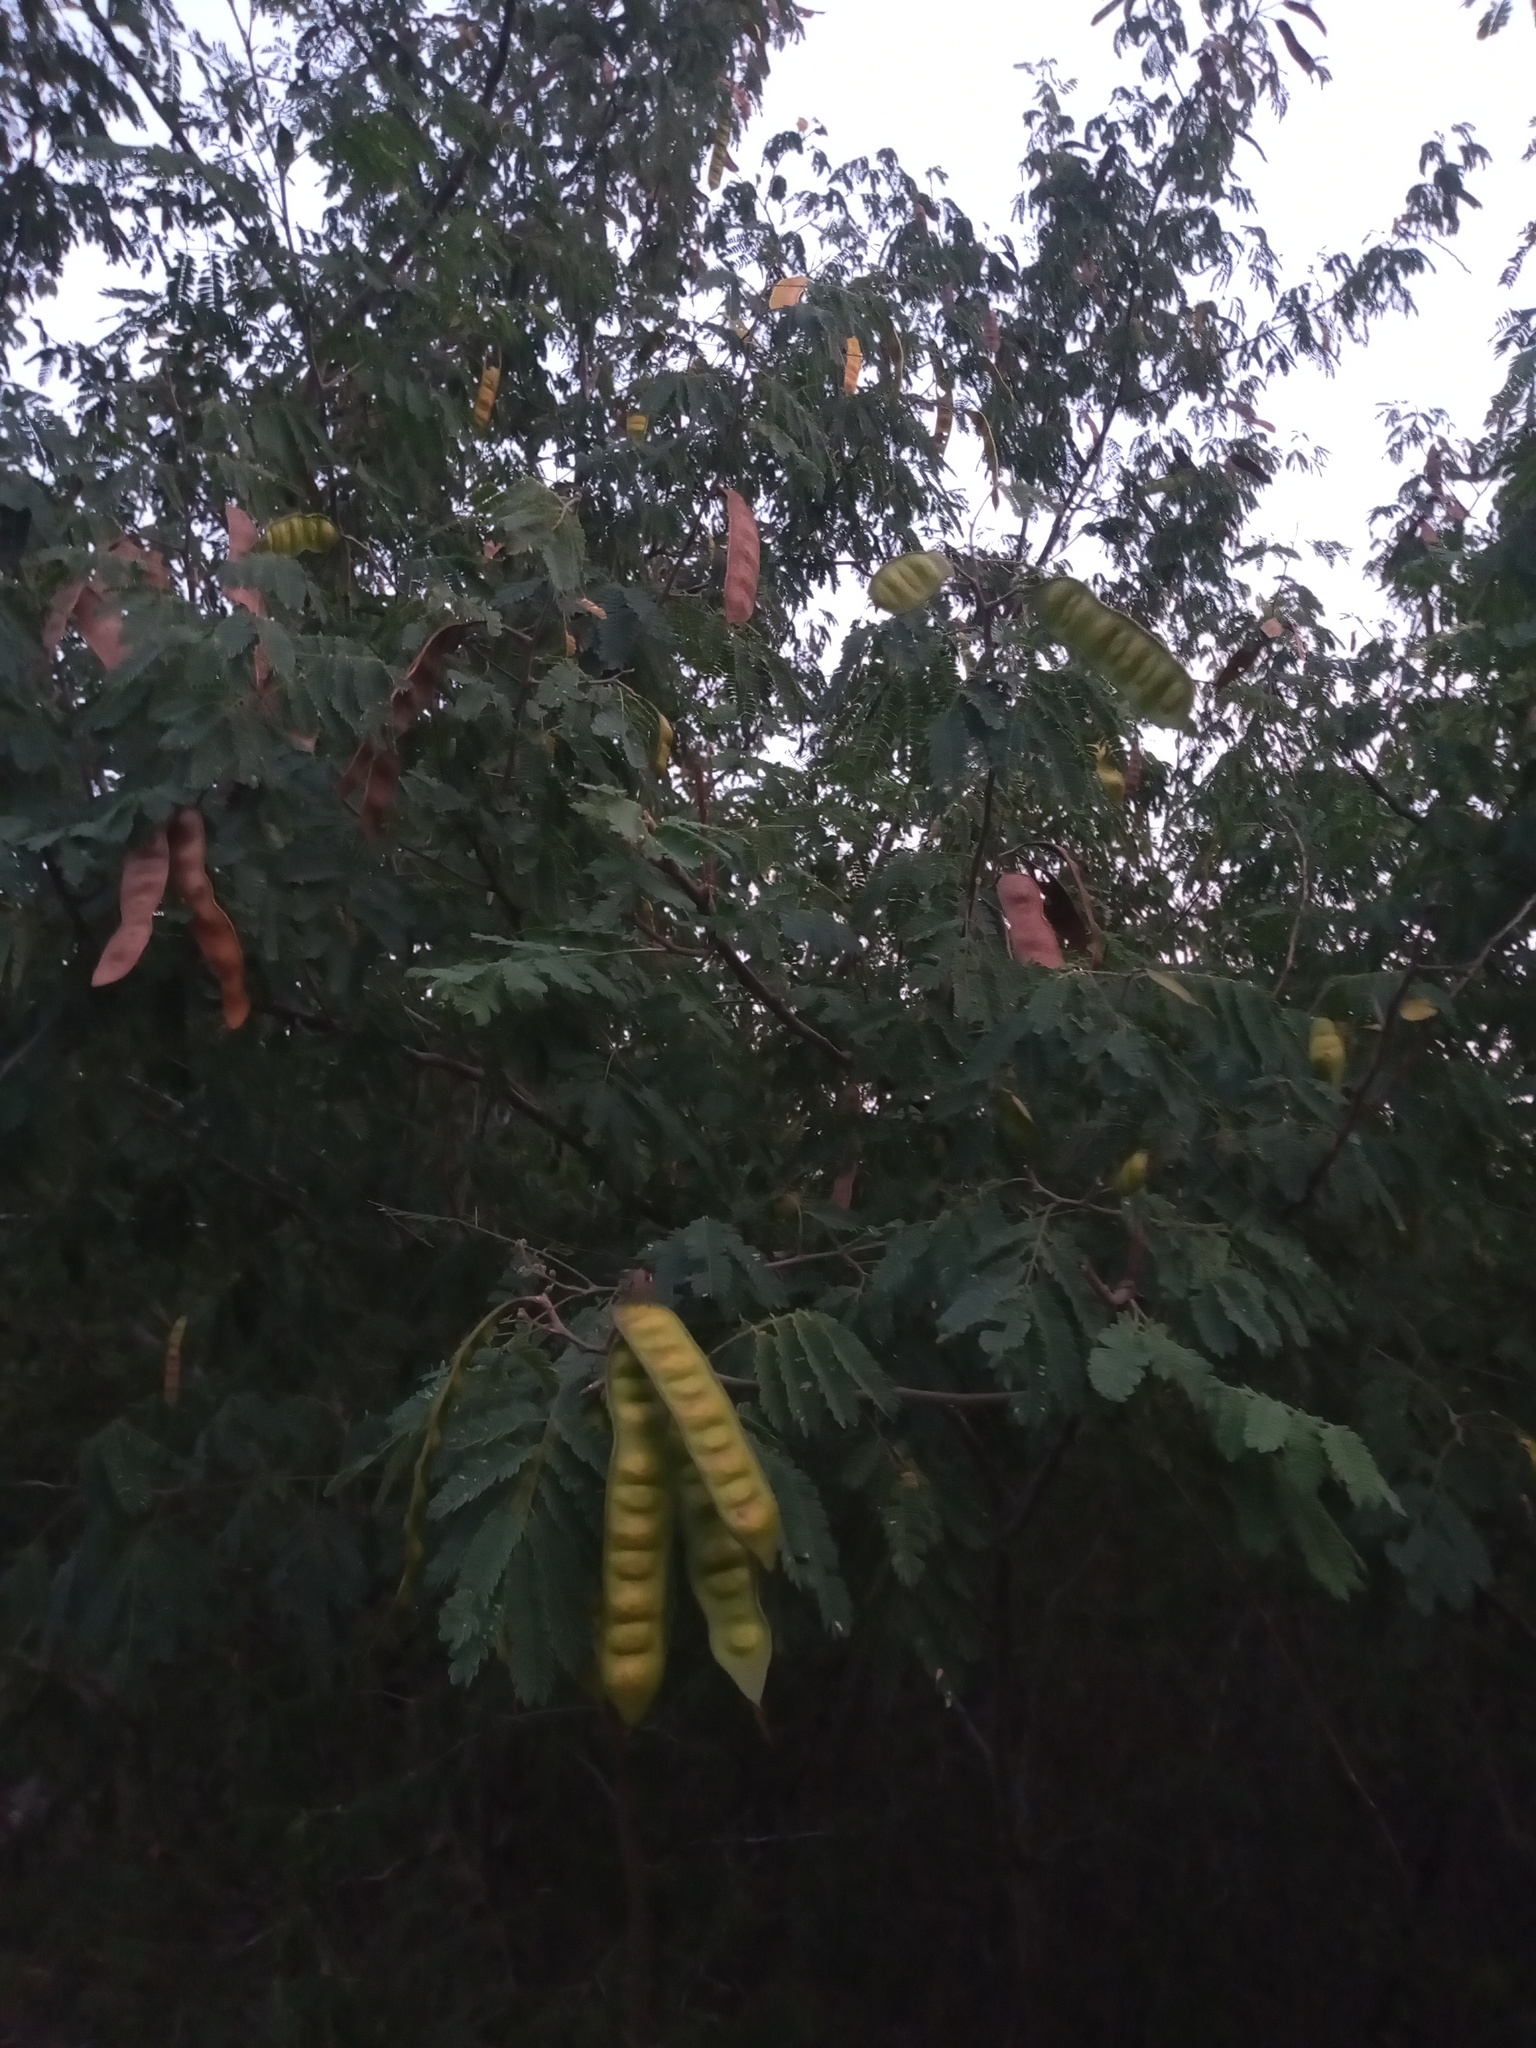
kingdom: Plantae
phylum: Tracheophyta
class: Magnoliopsida
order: Fabales
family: Fabaceae
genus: Havardia
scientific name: Havardia pallens
